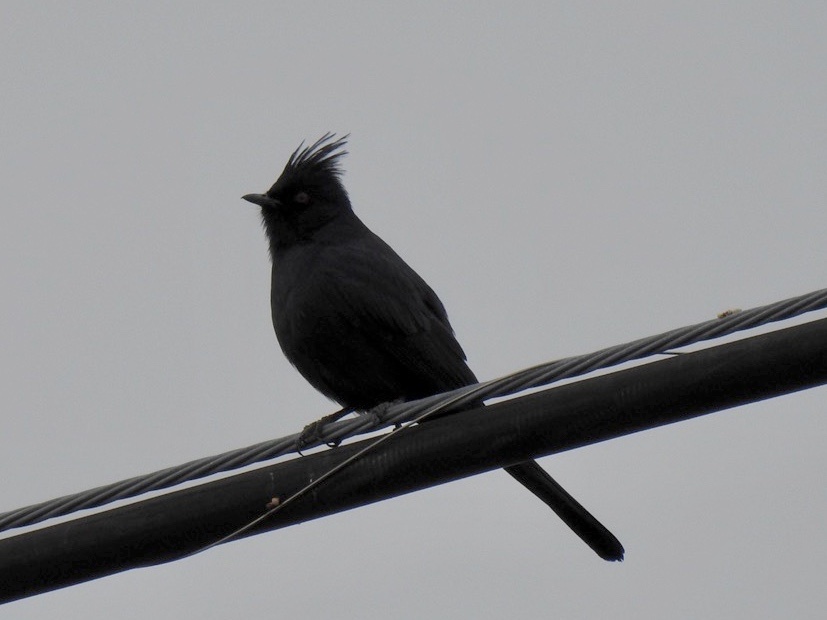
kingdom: Animalia
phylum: Chordata
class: Aves
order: Passeriformes
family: Ptilogonatidae
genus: Phainopepla
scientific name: Phainopepla nitens
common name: Phainopepla
